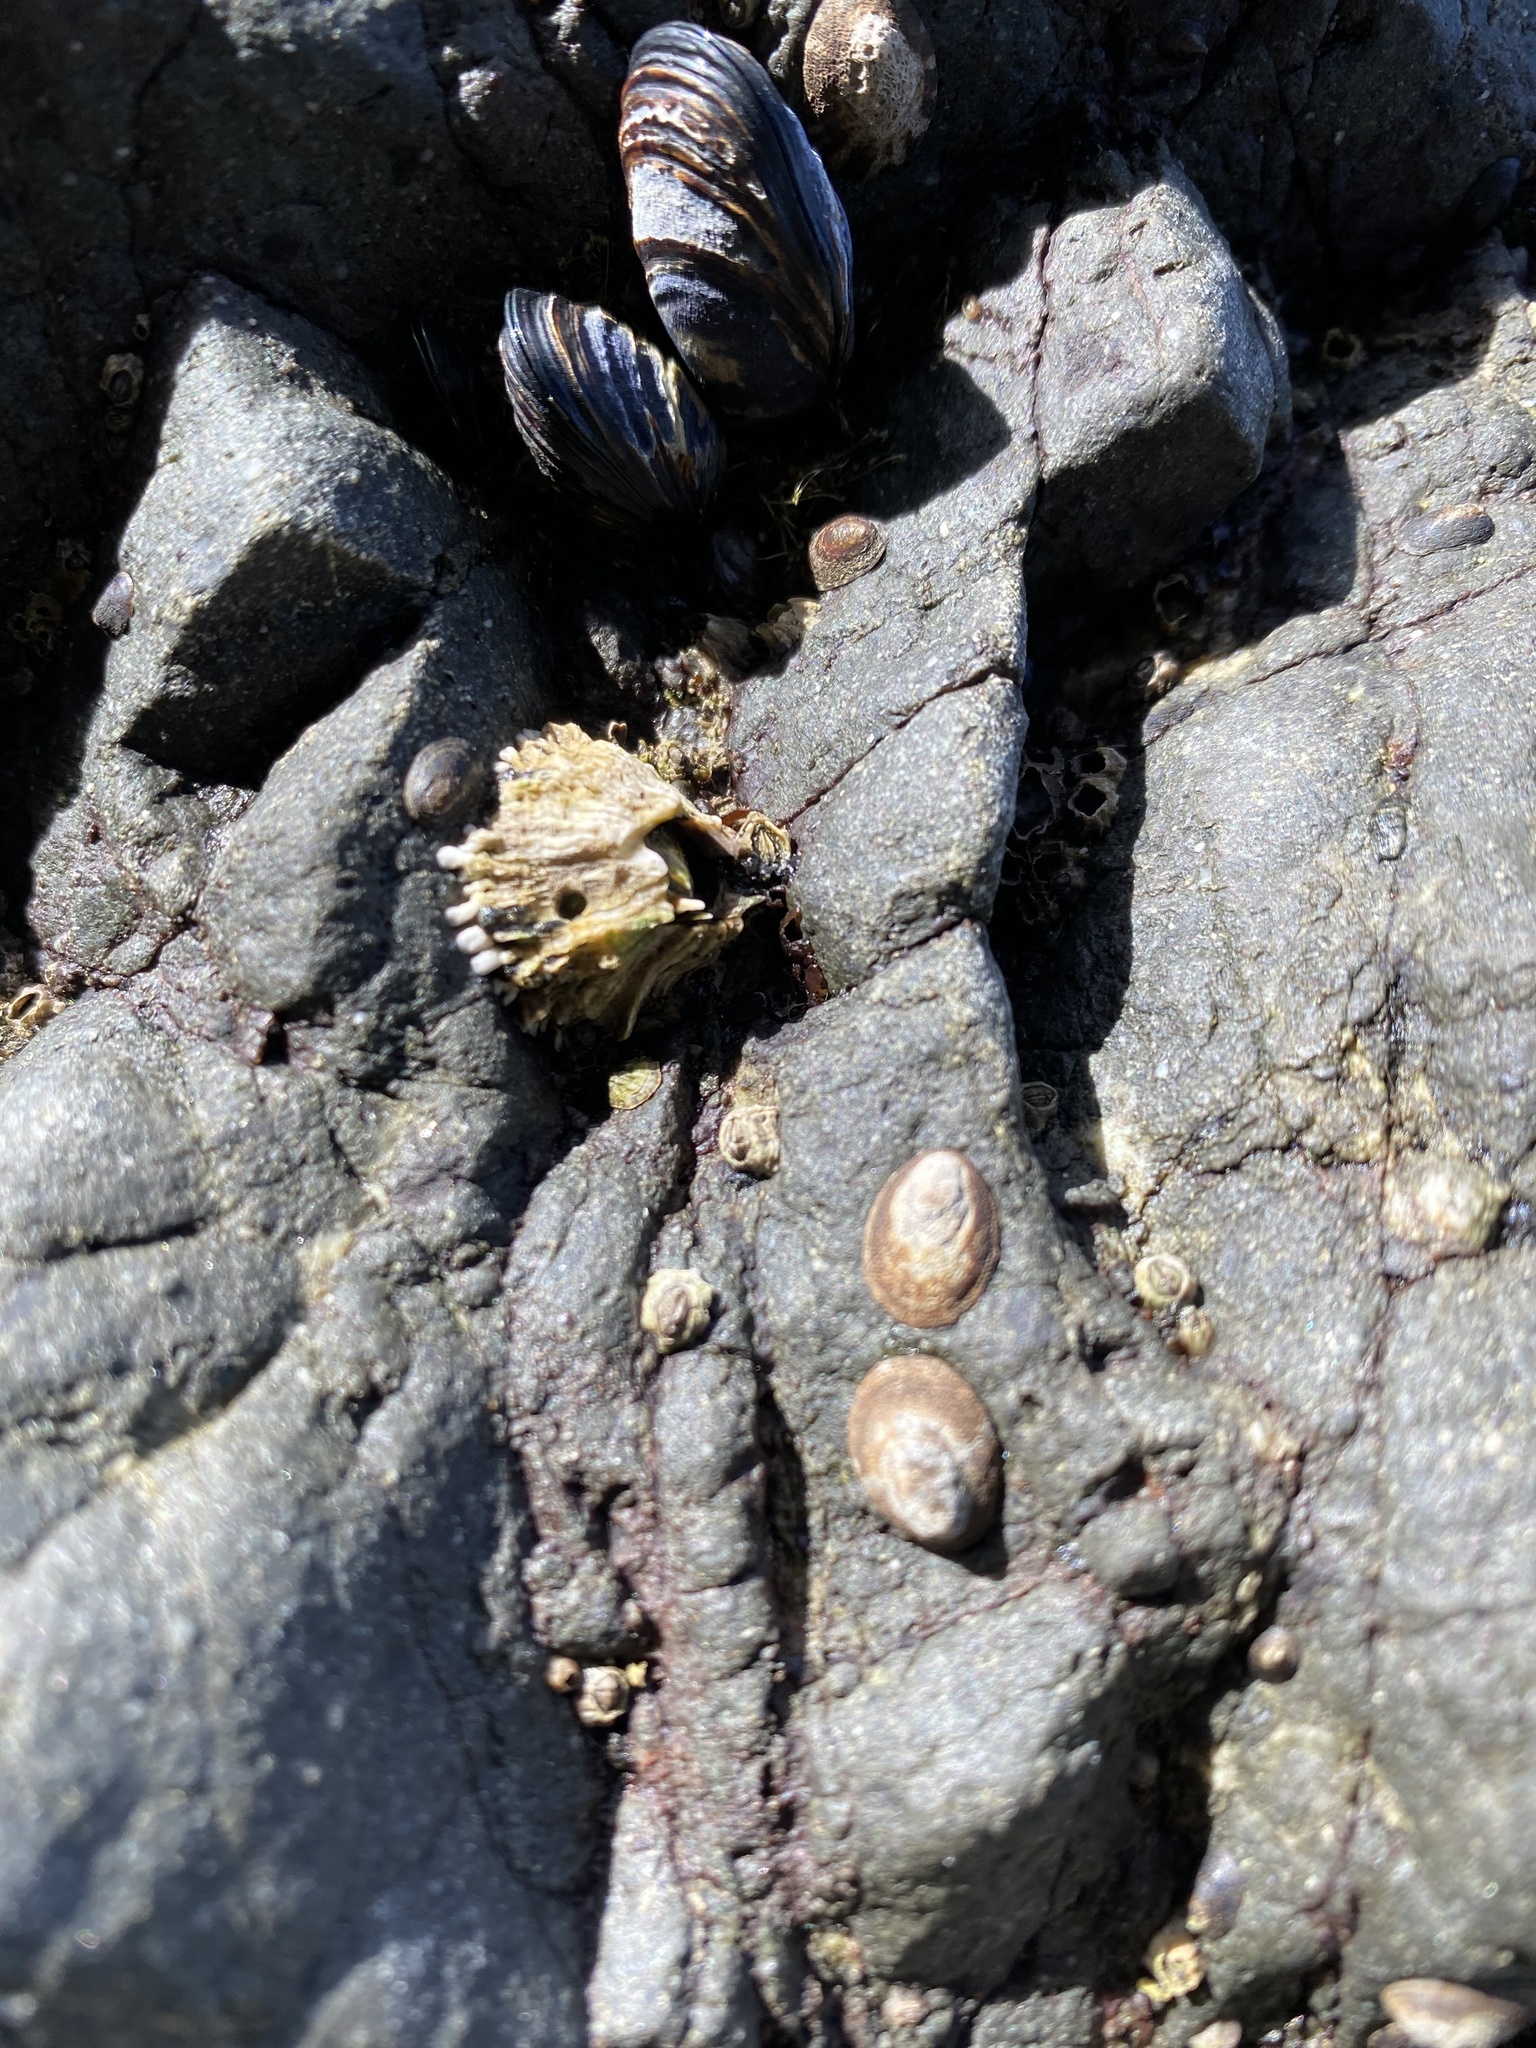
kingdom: Animalia
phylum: Arthropoda
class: Maxillopoda
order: Sessilia
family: Archaeobalanidae
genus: Semibalanus
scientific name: Semibalanus cariosus
